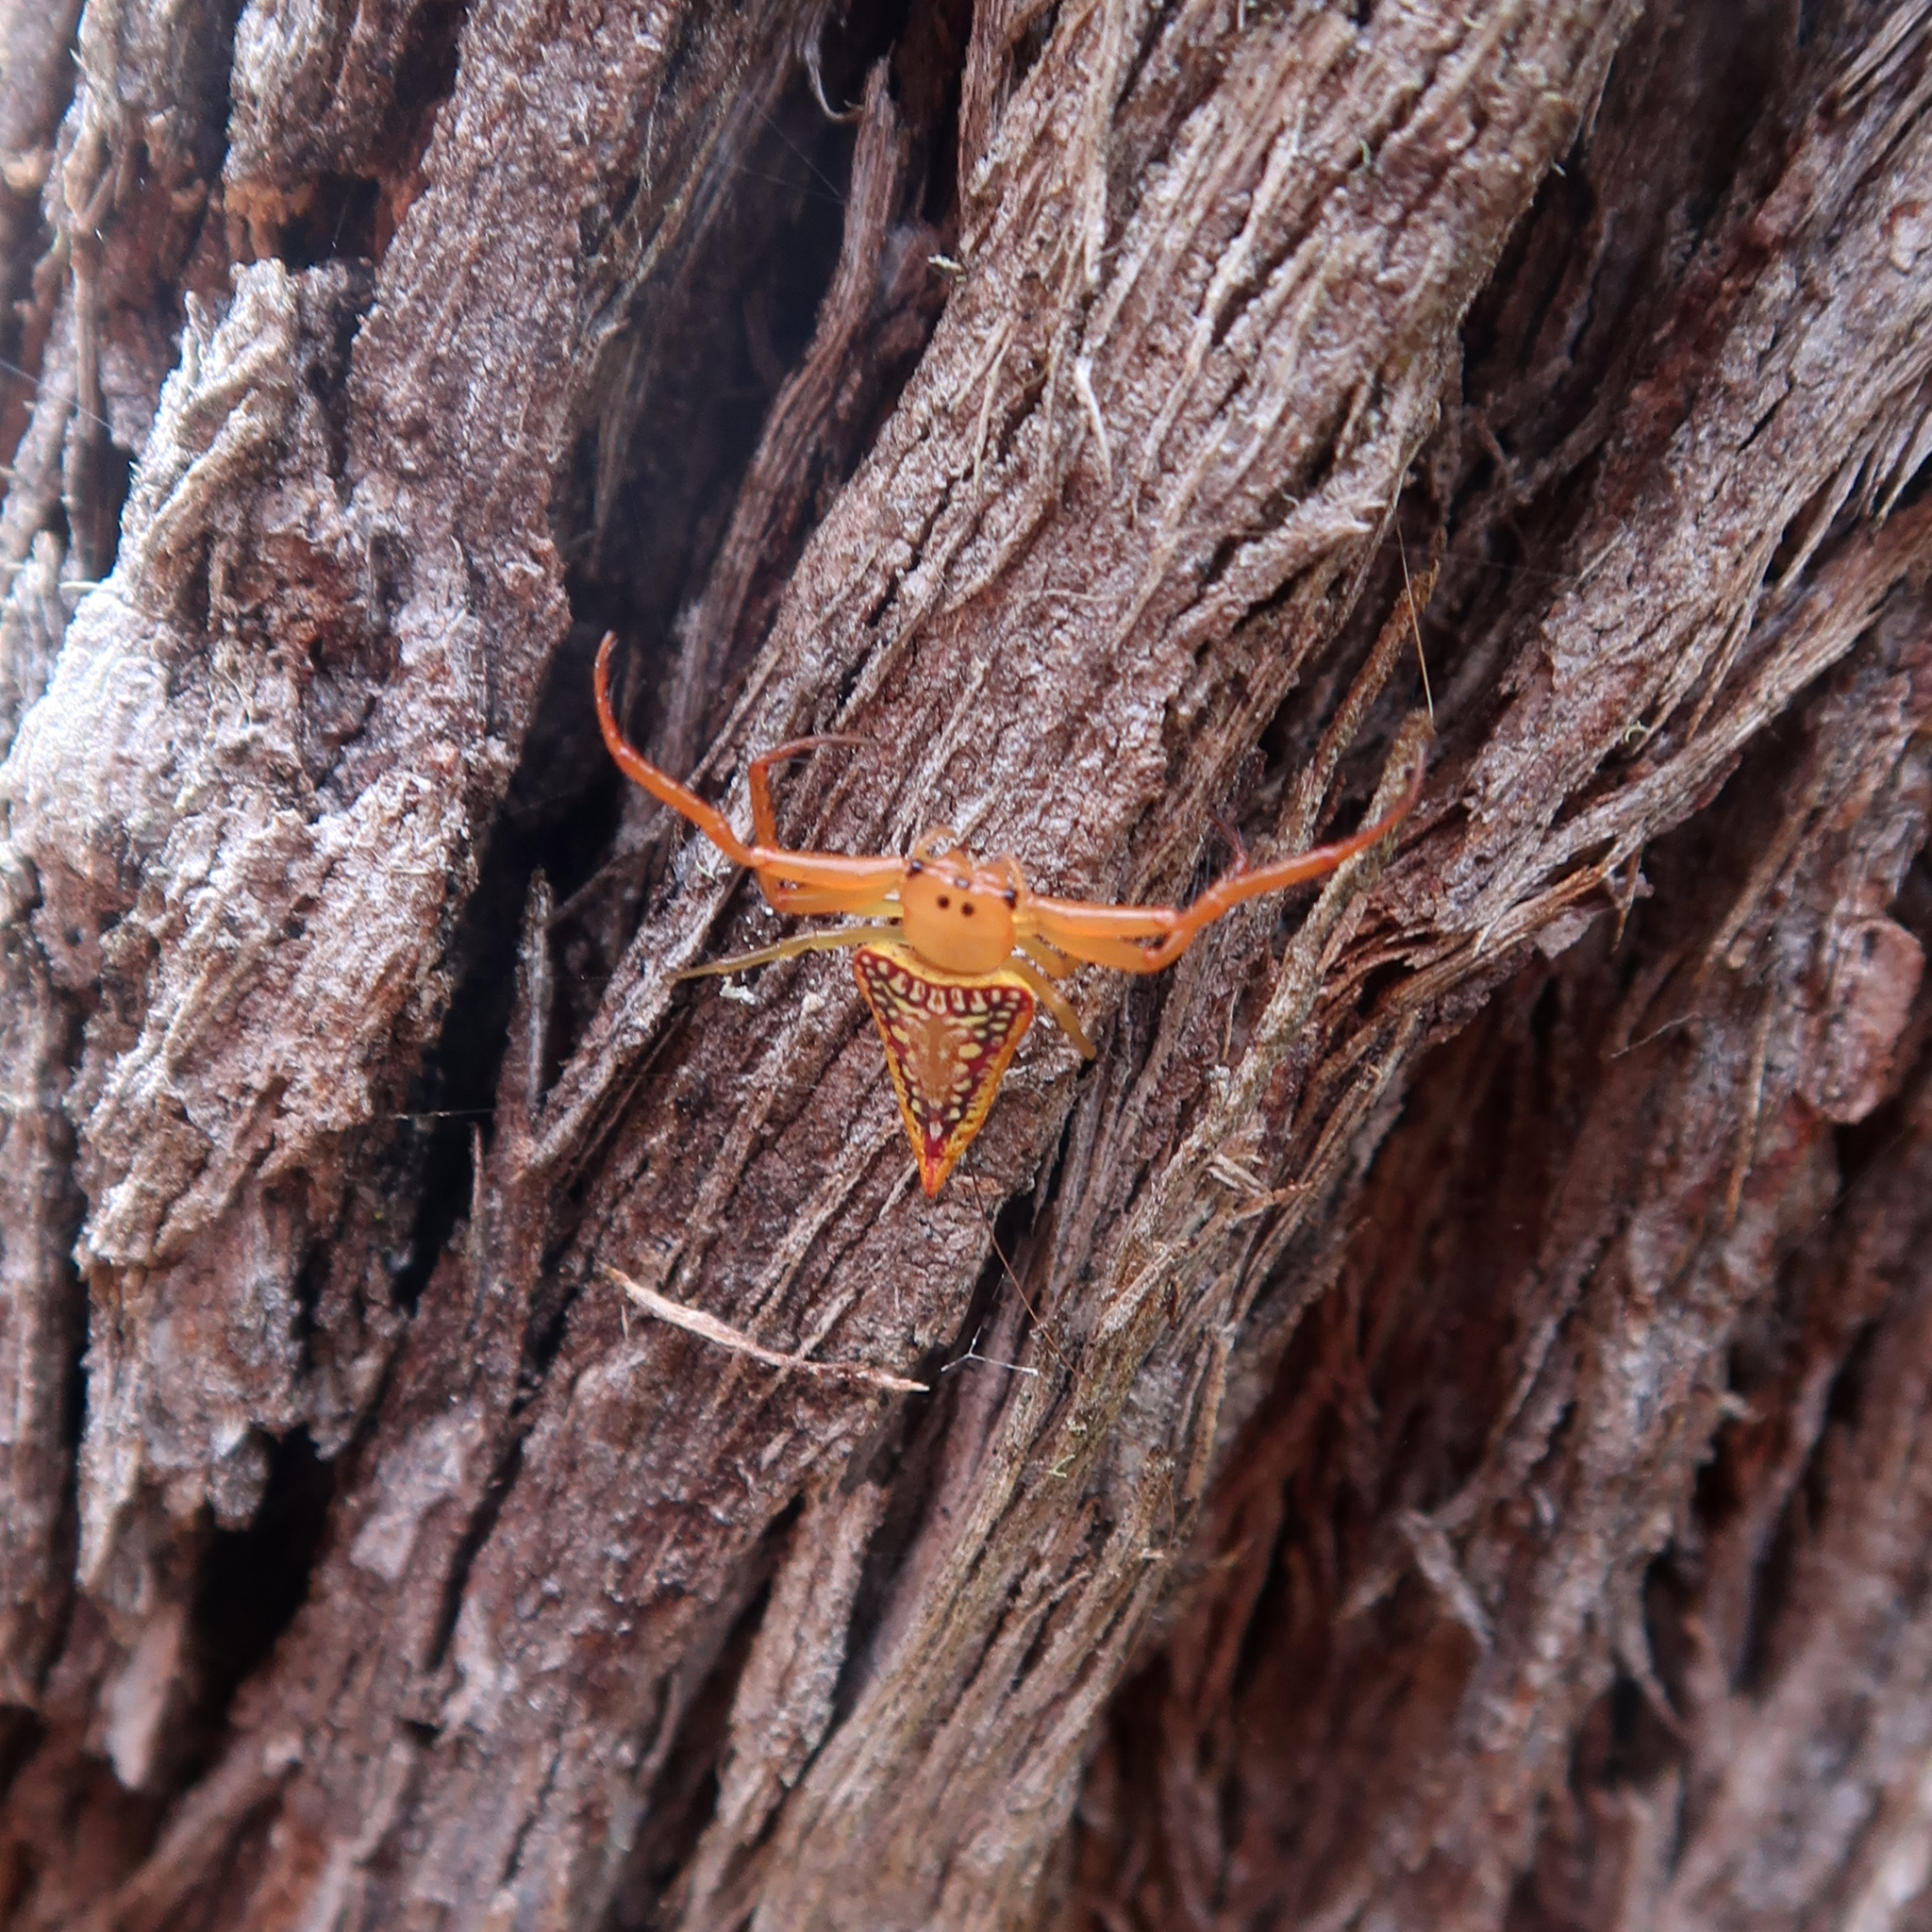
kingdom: Animalia
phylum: Arthropoda
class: Arachnida
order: Araneae
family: Arkyidae
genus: Arkys
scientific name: Arkys walckenaeri
